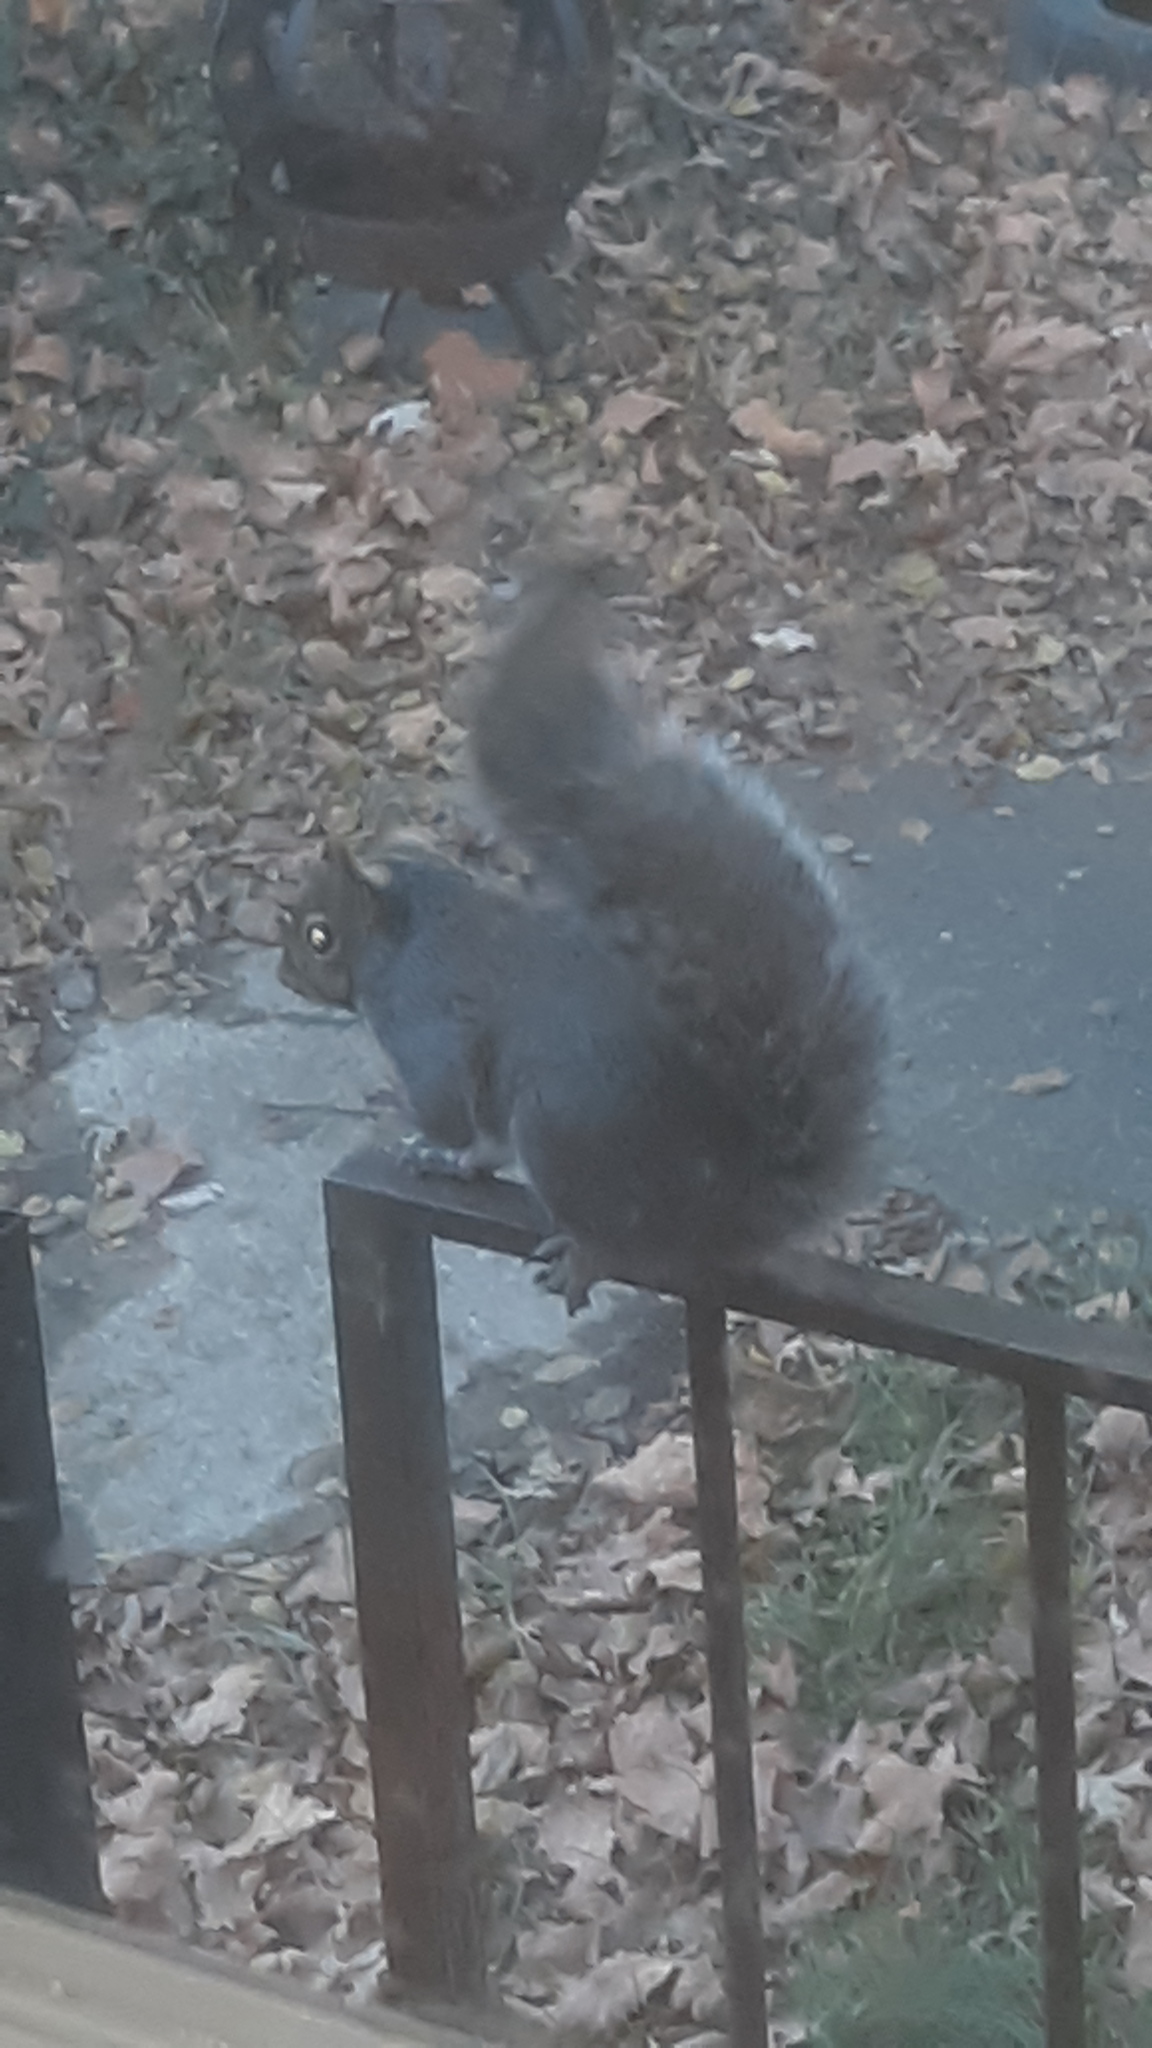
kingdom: Animalia
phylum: Chordata
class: Mammalia
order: Rodentia
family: Sciuridae
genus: Sciurus
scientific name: Sciurus carolinensis
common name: Eastern gray squirrel
